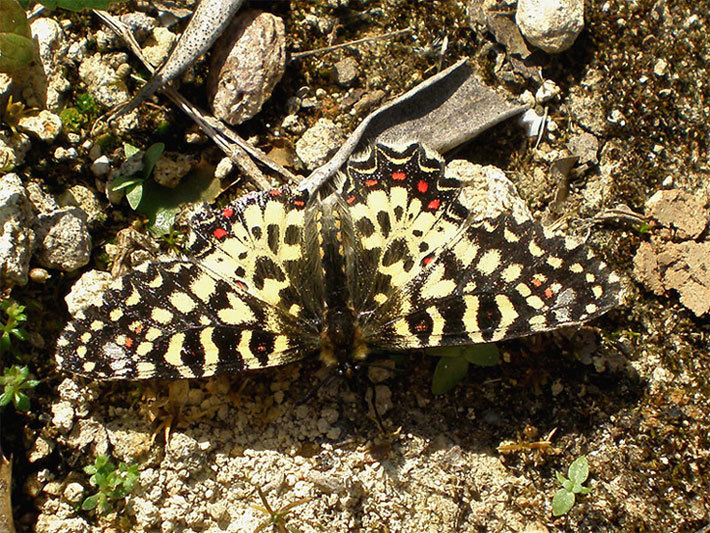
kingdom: Animalia
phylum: Arthropoda
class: Insecta
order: Lepidoptera
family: Papilionidae
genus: Zerynthia
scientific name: Zerynthia rumina
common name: Spanish festoon
